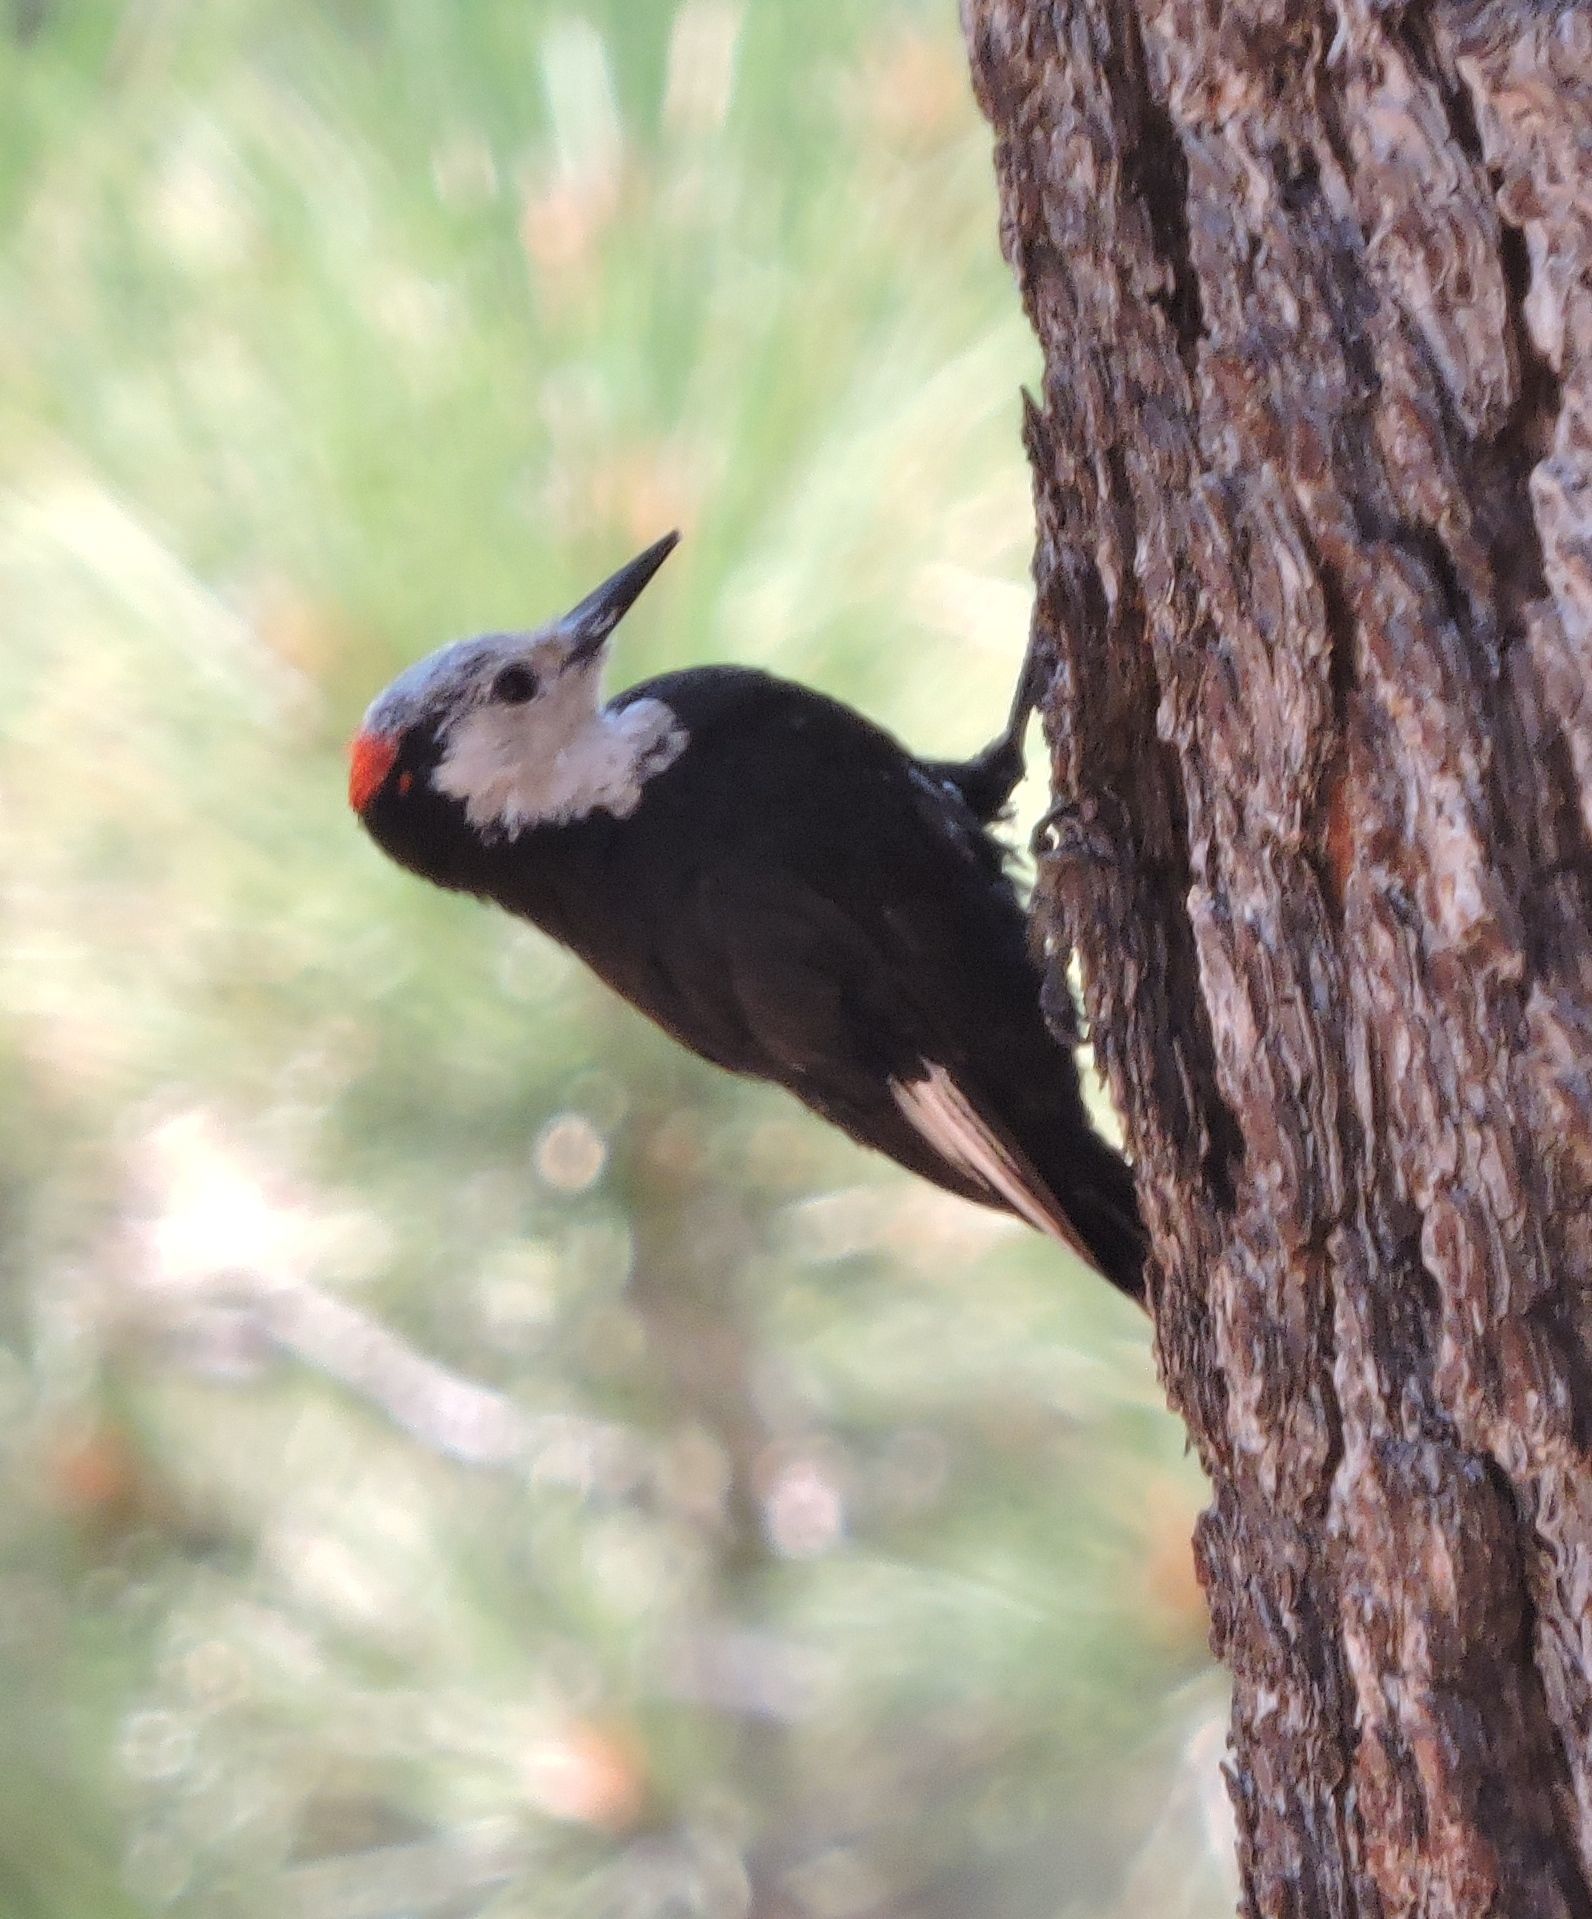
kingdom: Animalia
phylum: Chordata
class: Aves
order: Piciformes
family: Picidae
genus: Leuconotopicus
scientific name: Leuconotopicus albolarvatus
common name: White-headed woodpecker
